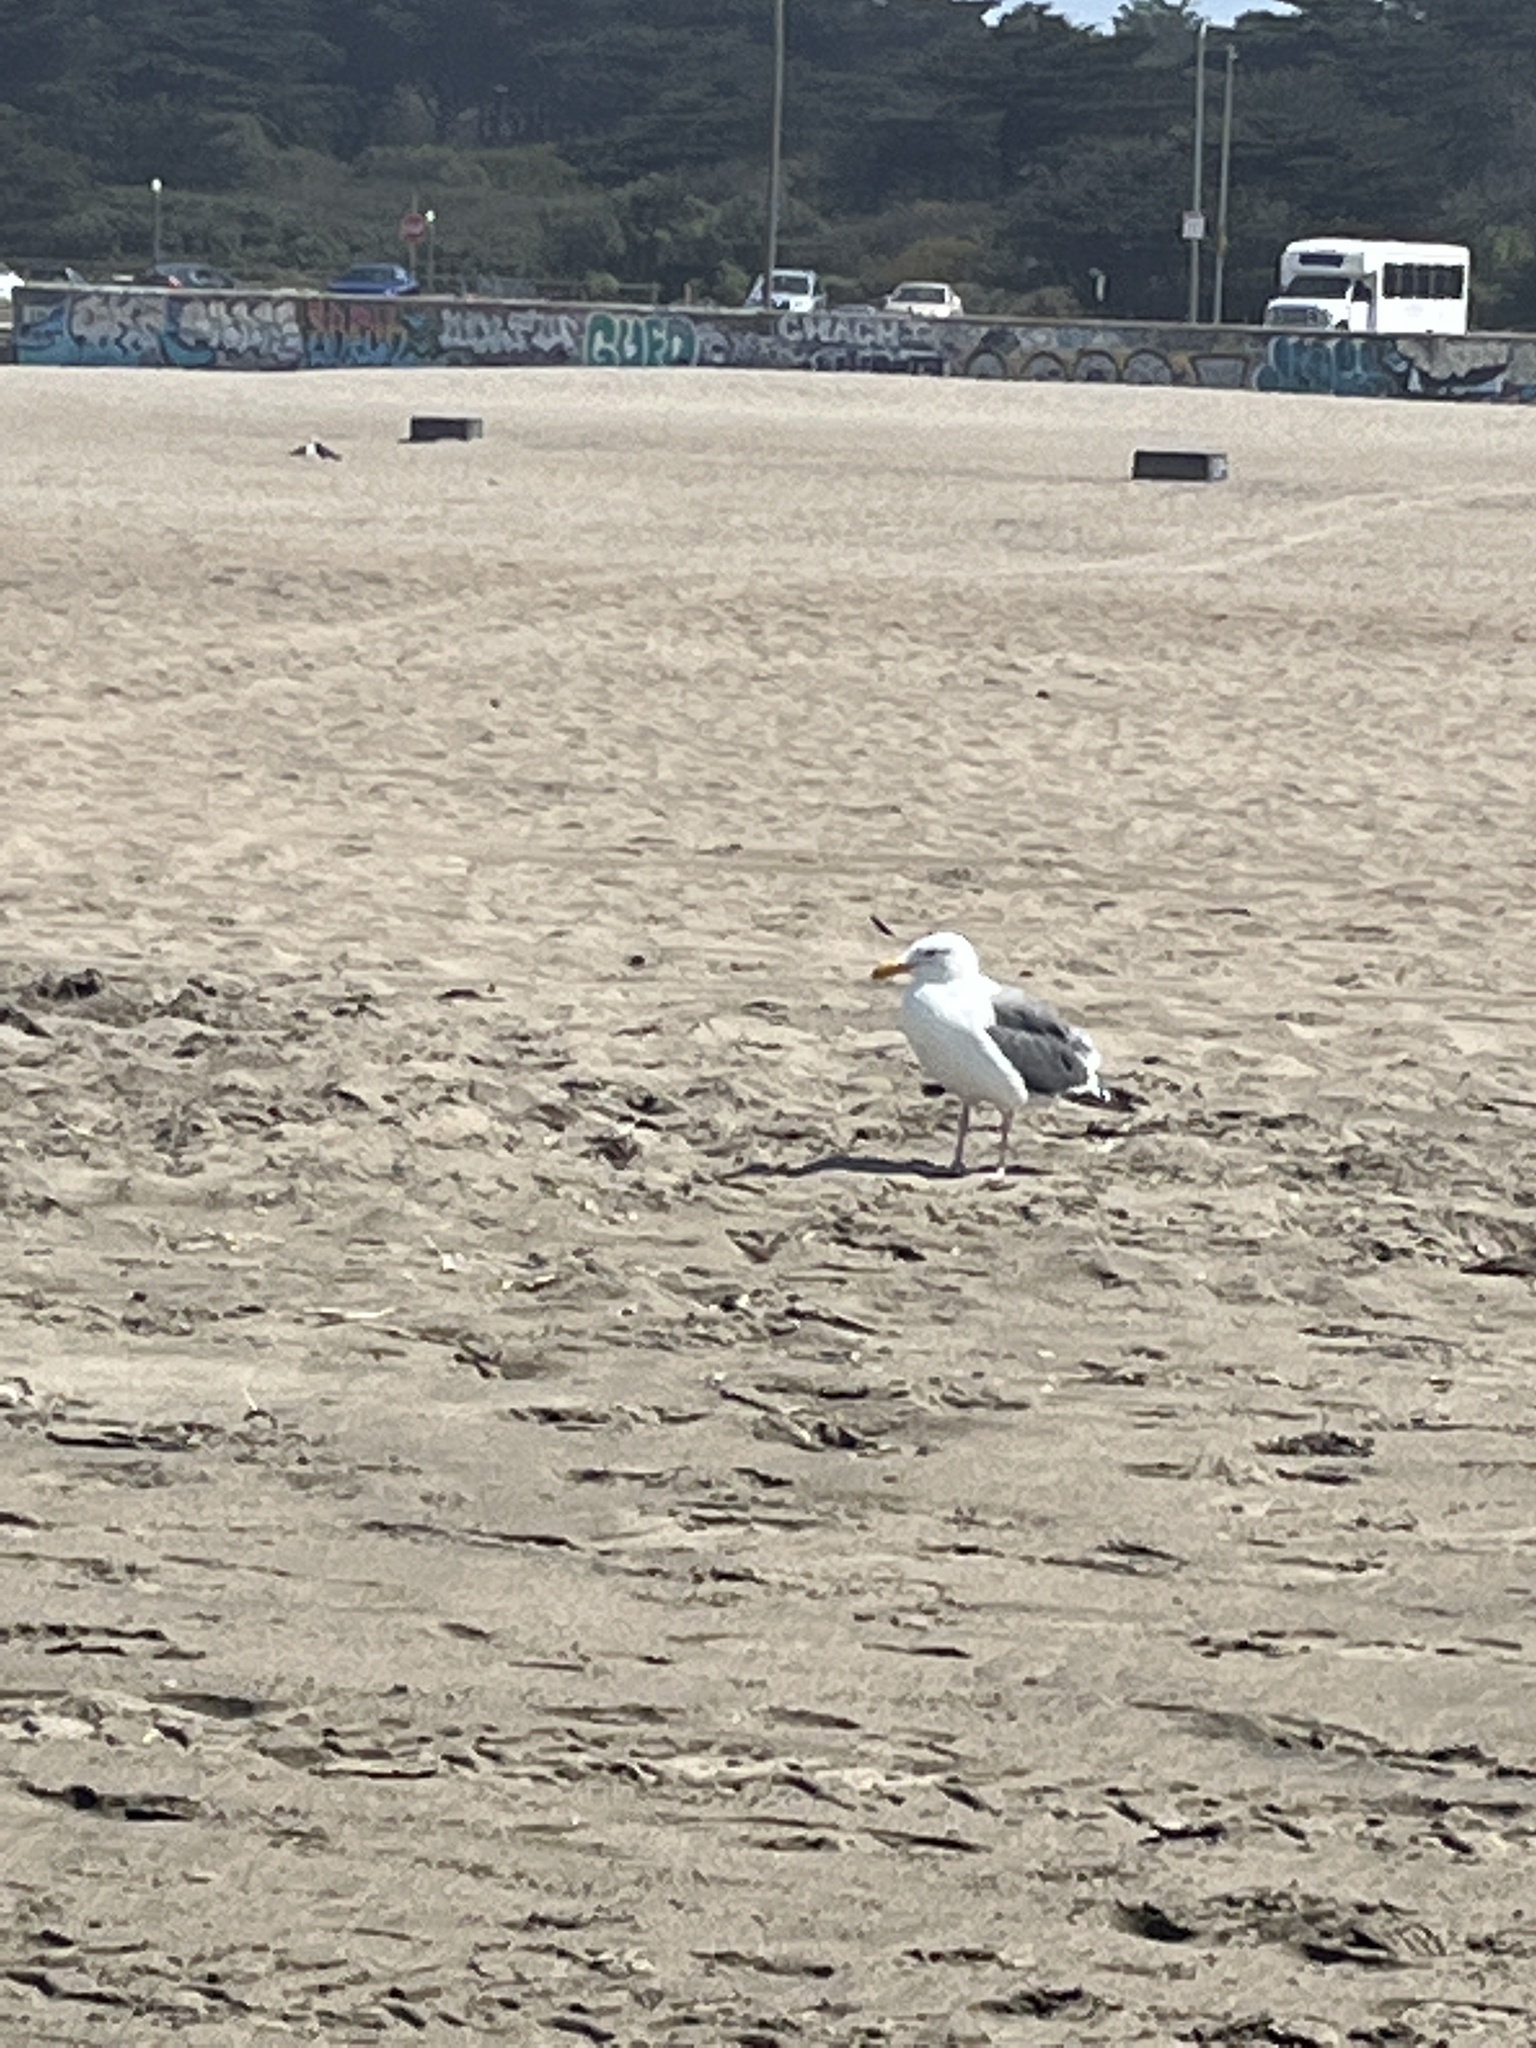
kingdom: Animalia
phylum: Chordata
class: Aves
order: Charadriiformes
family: Laridae
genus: Larus
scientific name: Larus occidentalis
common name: Western gull
